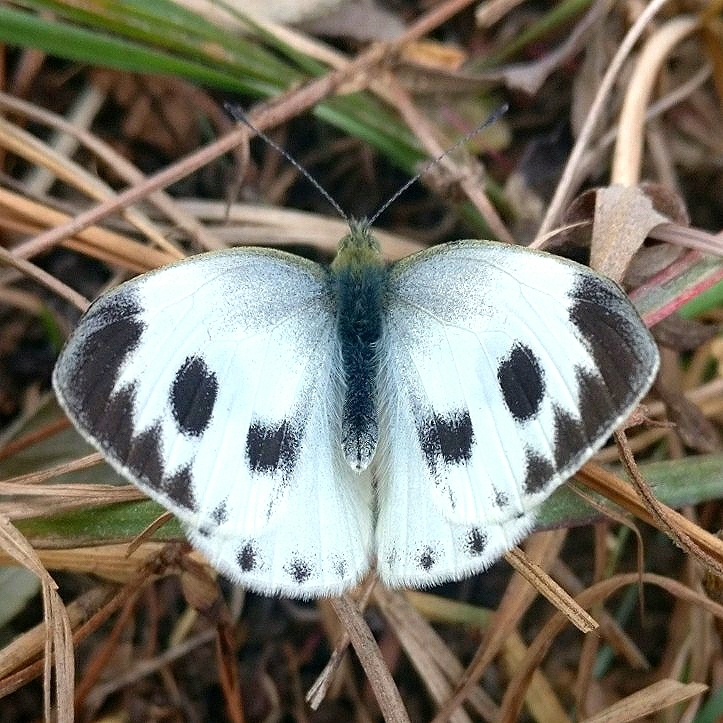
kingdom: Animalia
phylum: Arthropoda
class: Insecta
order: Lepidoptera
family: Pieridae
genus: Pieris
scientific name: Pieris canidia
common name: Indian cabbage white
